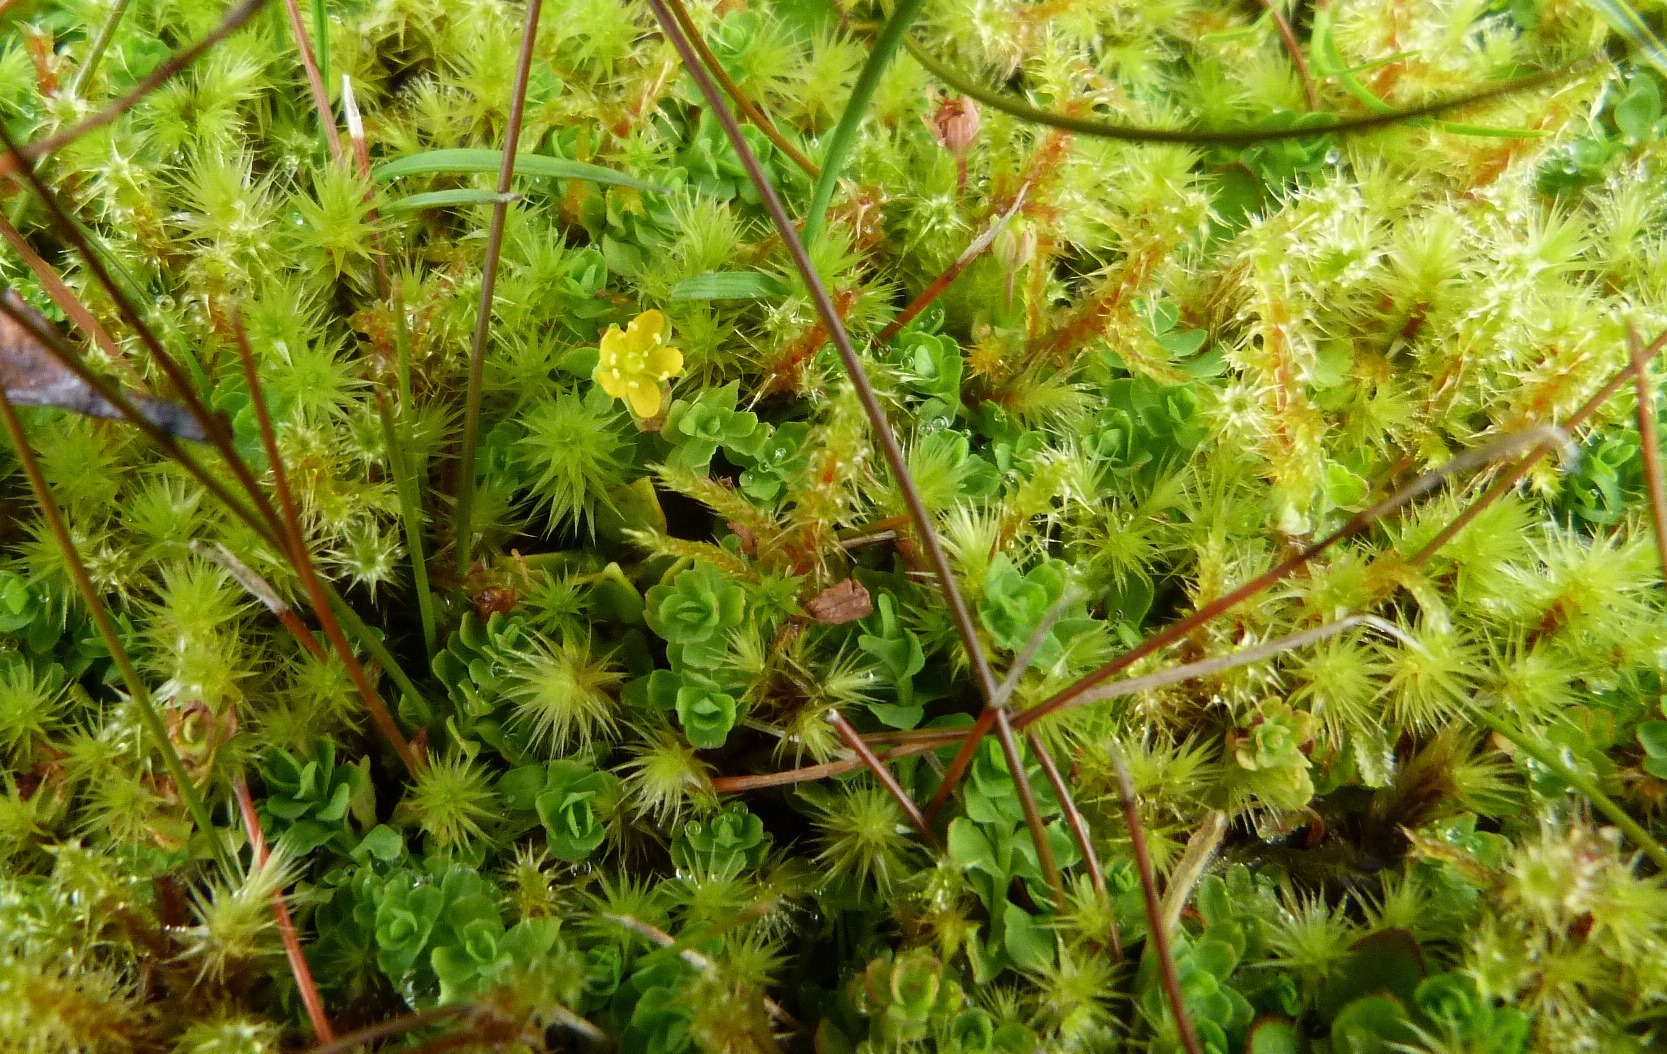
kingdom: Plantae
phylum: Tracheophyta
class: Magnoliopsida
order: Malpighiales
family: Hypericaceae
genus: Hypericum
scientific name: Hypericum japonicum
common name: Matted st. john's-wort
